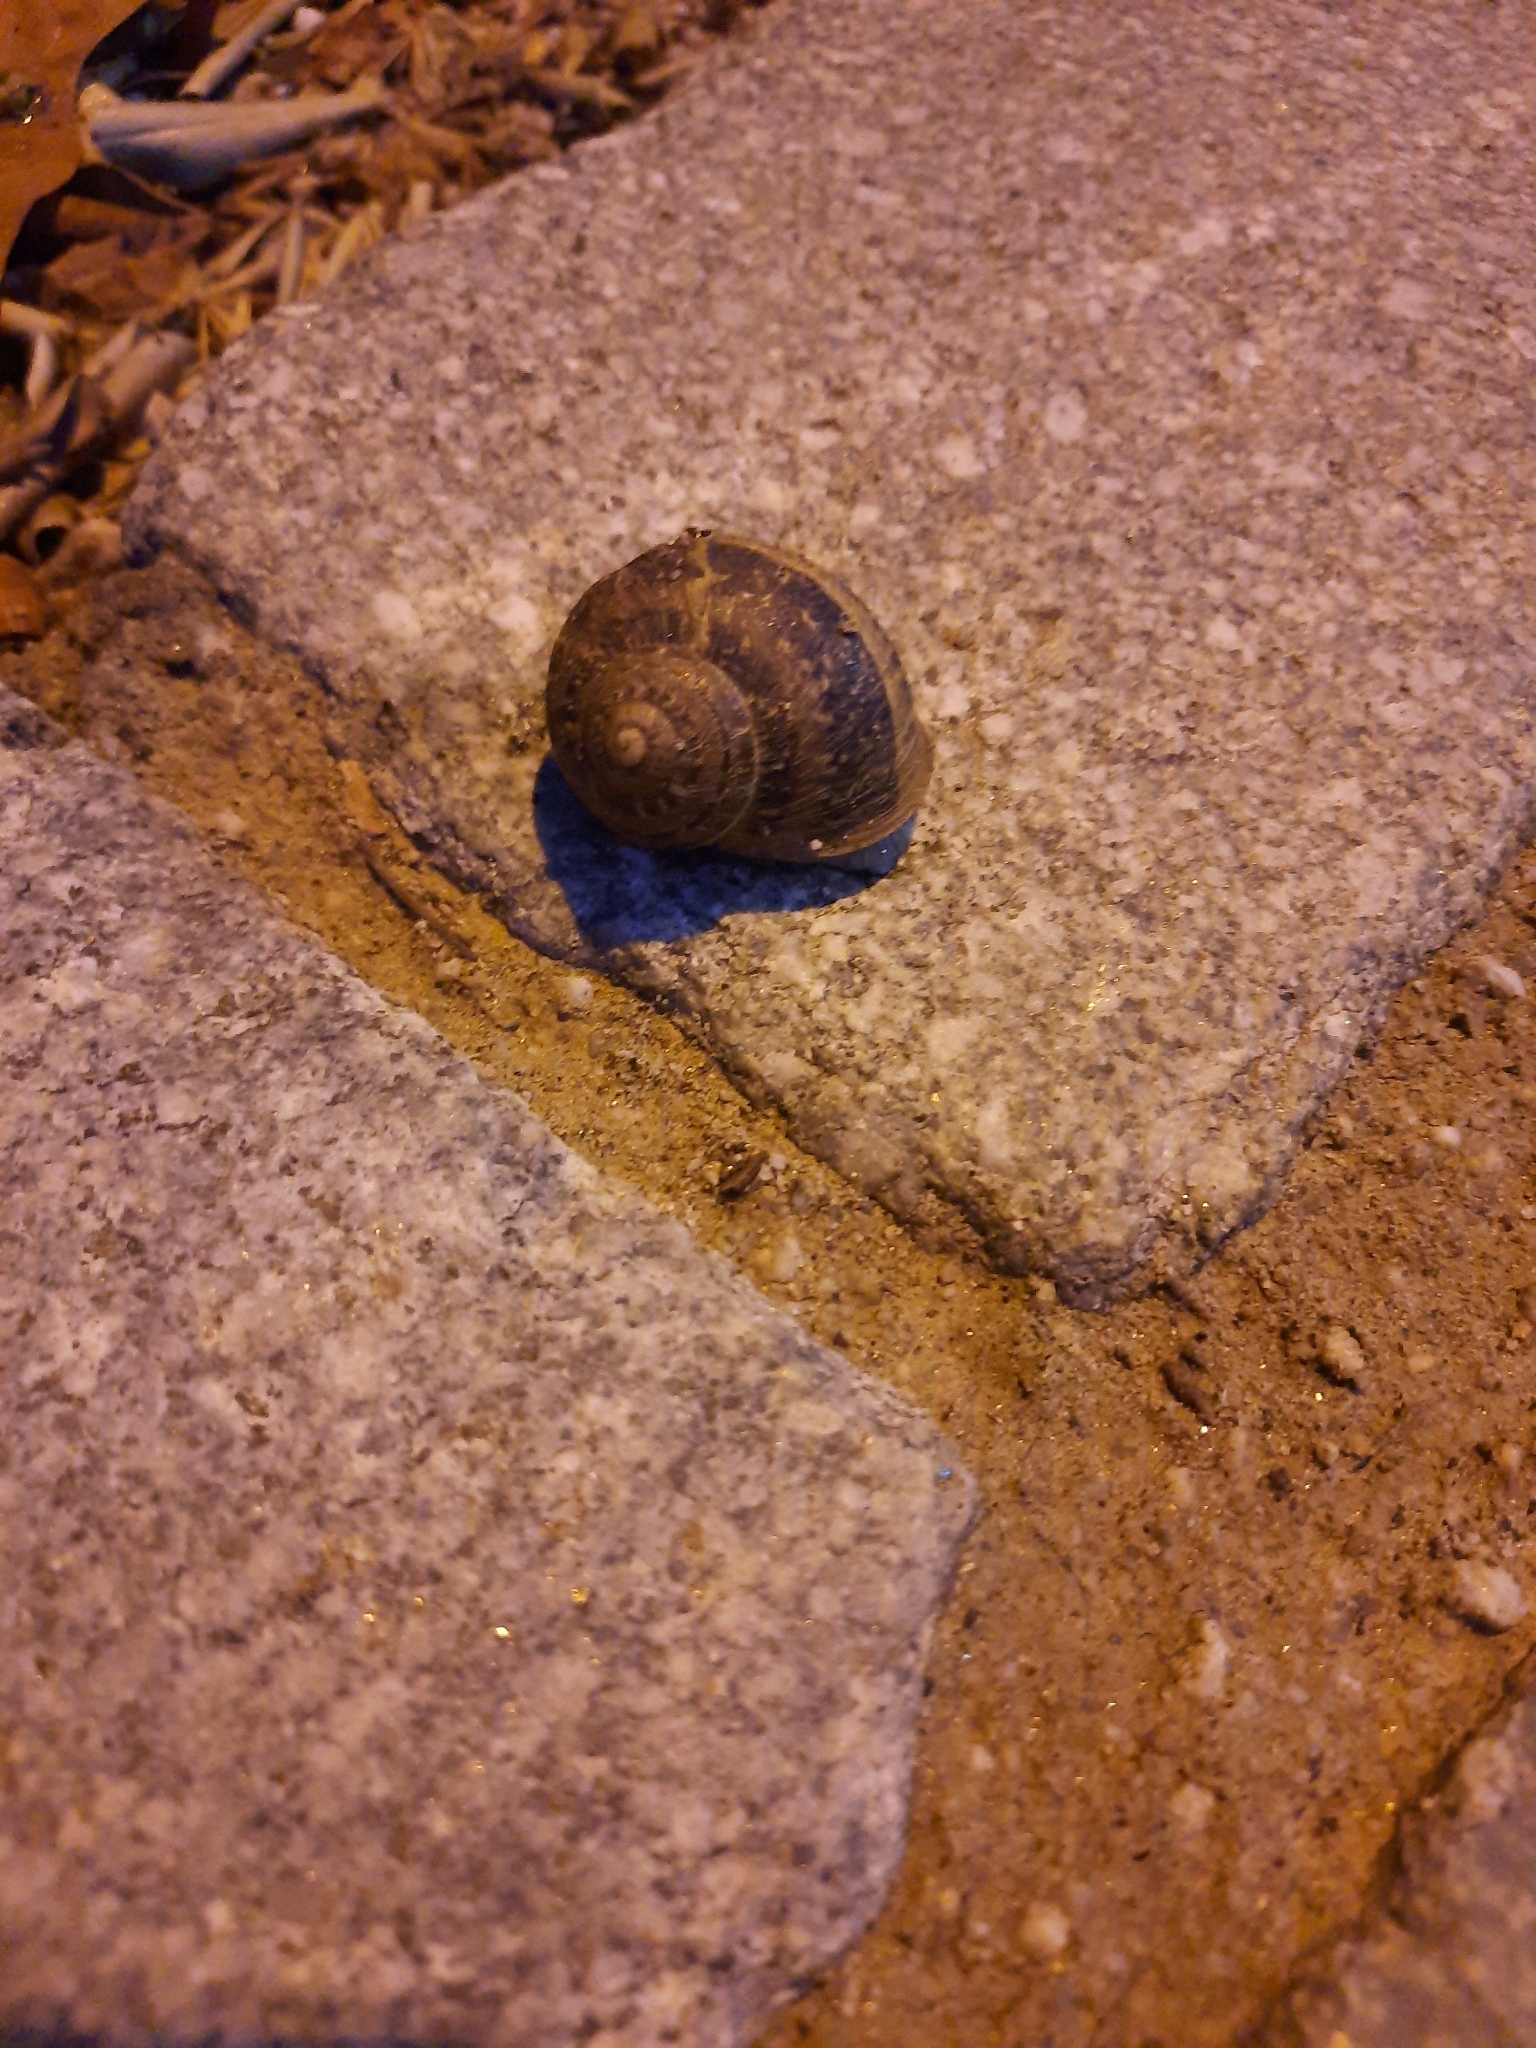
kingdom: Animalia
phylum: Mollusca
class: Gastropoda
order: Stylommatophora
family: Helicidae
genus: Cornu
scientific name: Cornu aspersum
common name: Brown garden snail
